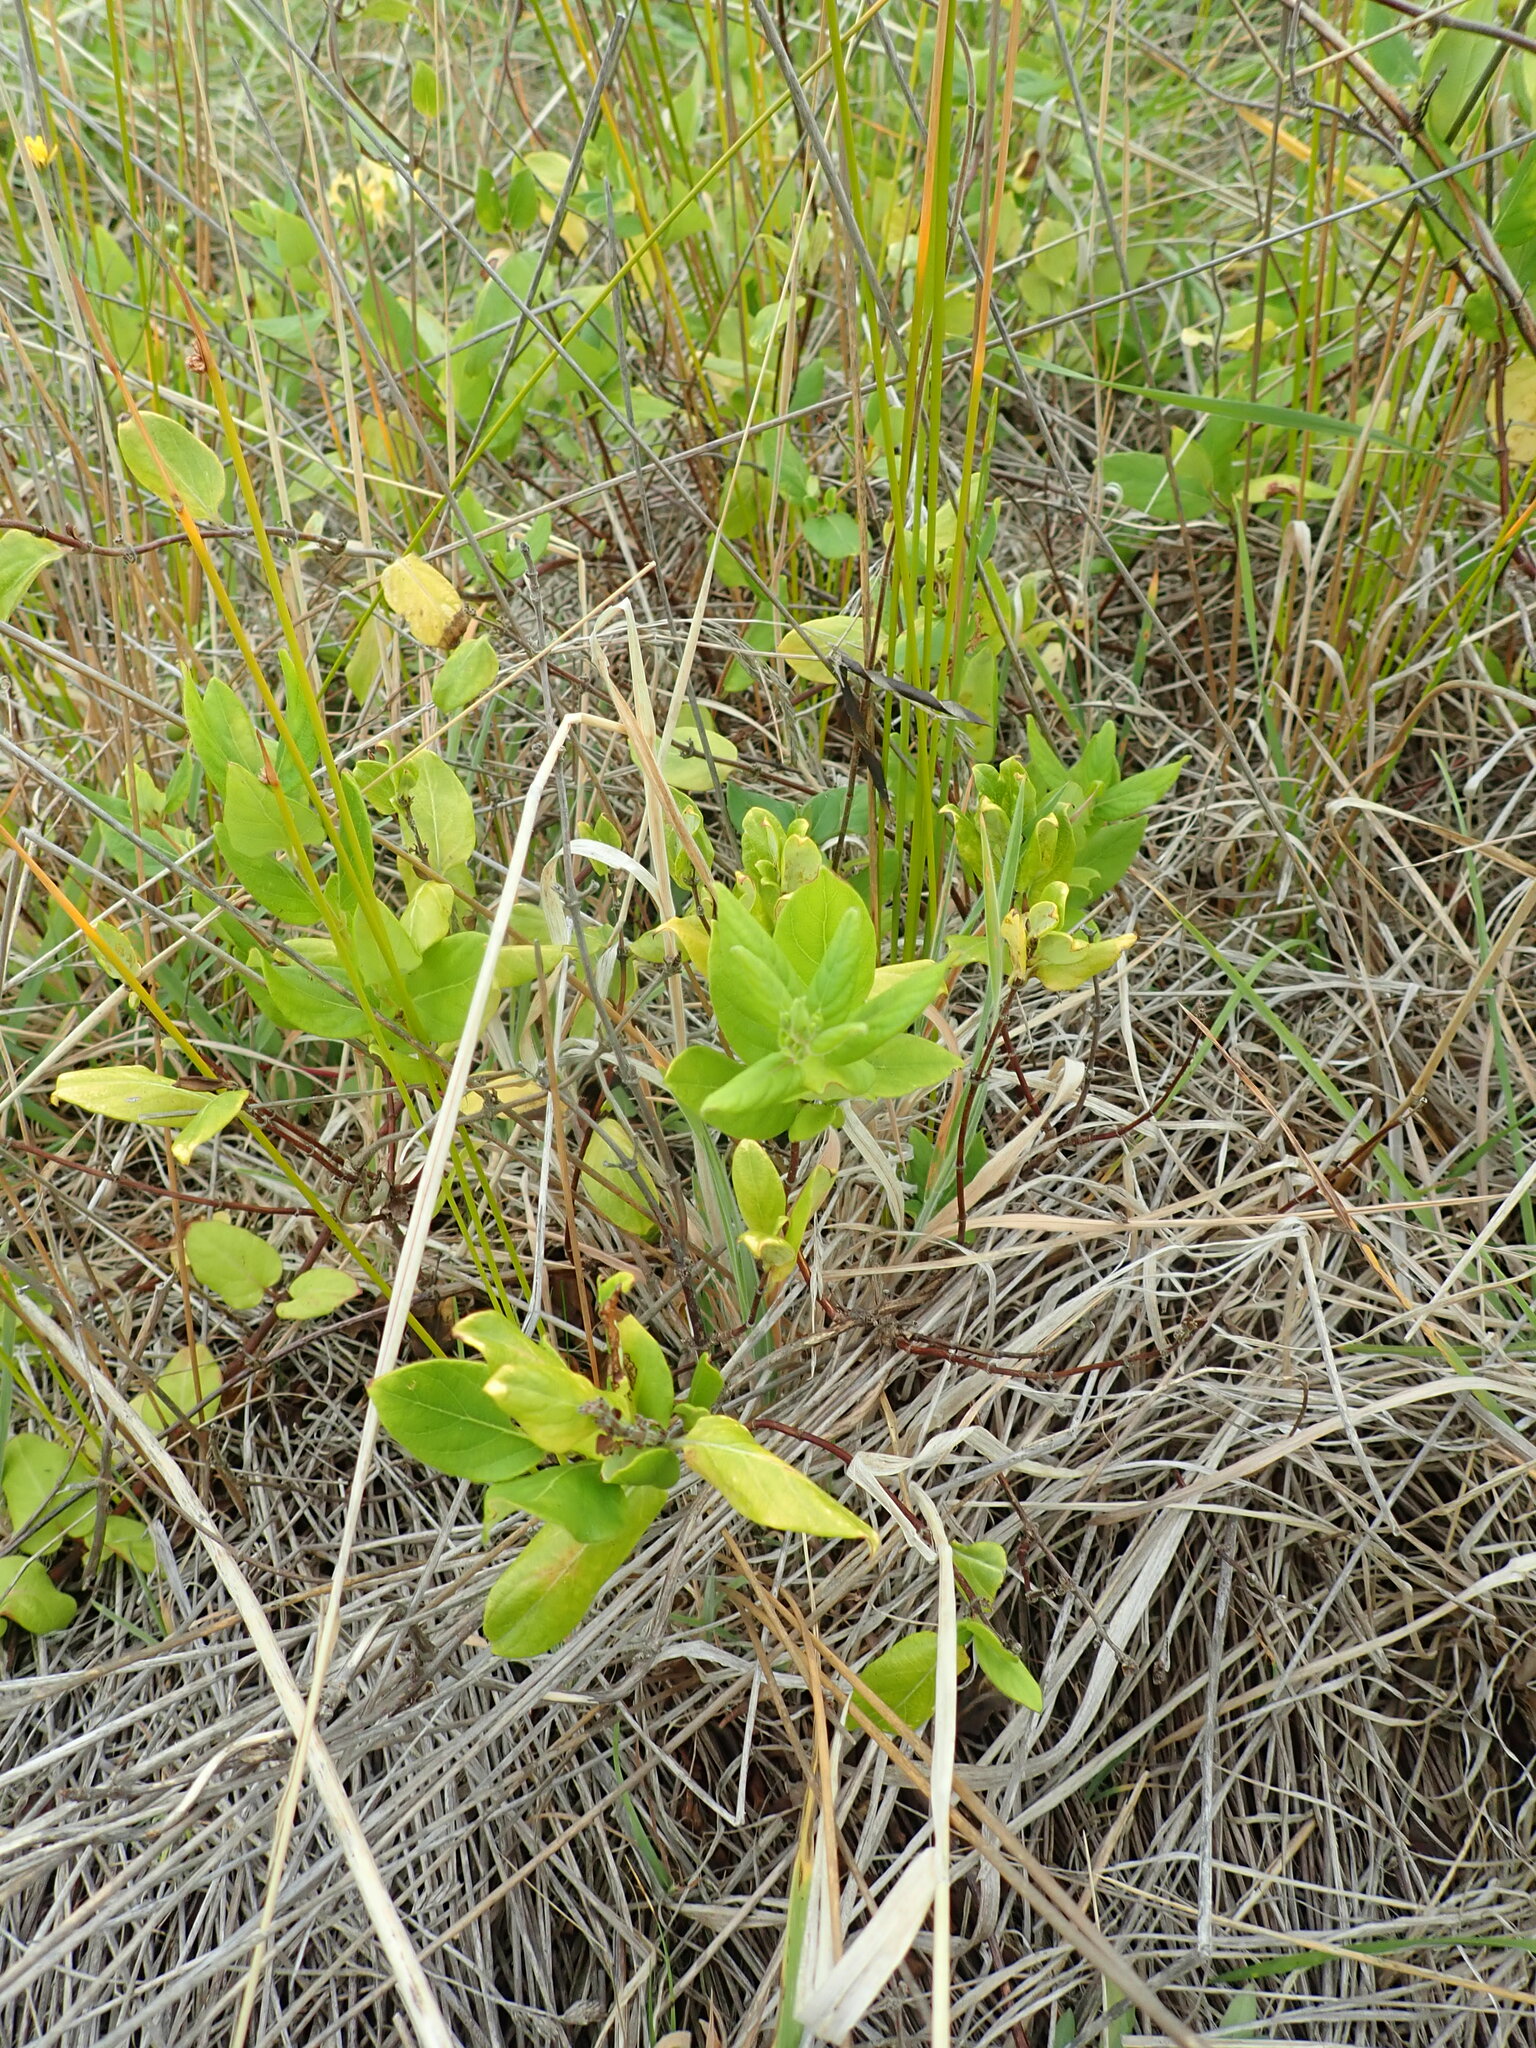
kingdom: Plantae
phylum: Tracheophyta
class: Magnoliopsida
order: Dipsacales
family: Caprifoliaceae
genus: Lonicera
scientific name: Lonicera japonica
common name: Japanese honeysuckle
